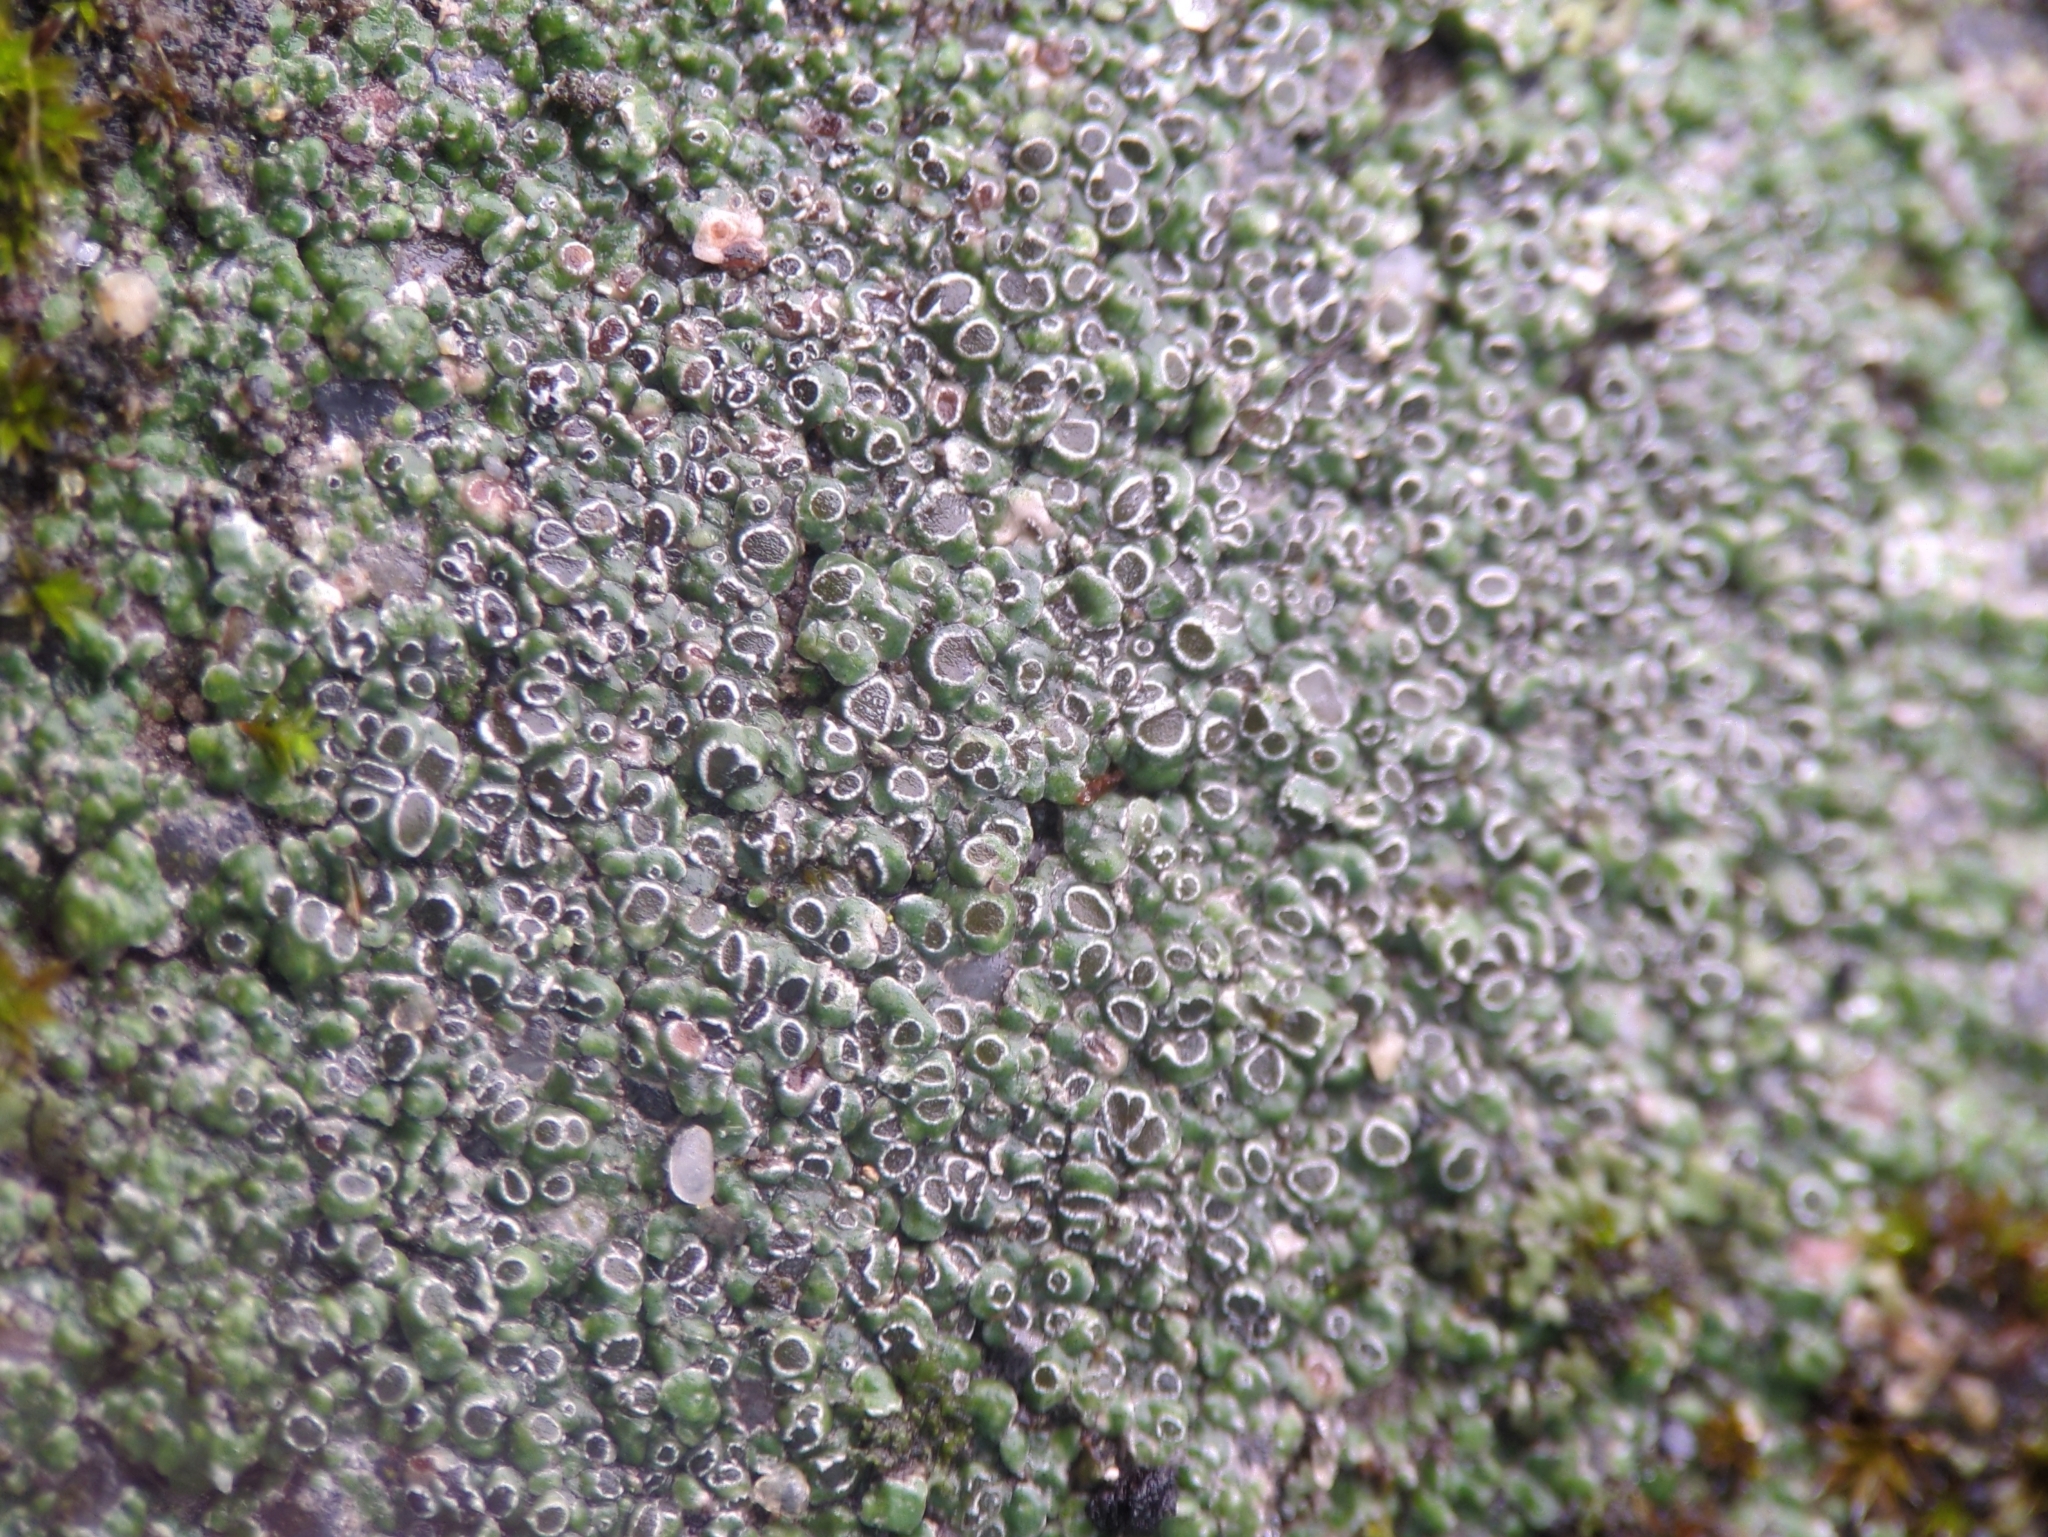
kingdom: Fungi
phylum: Ascomycota
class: Lecanoromycetes
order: Pertusariales
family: Megasporaceae
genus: Circinaria
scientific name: Circinaria contorta
